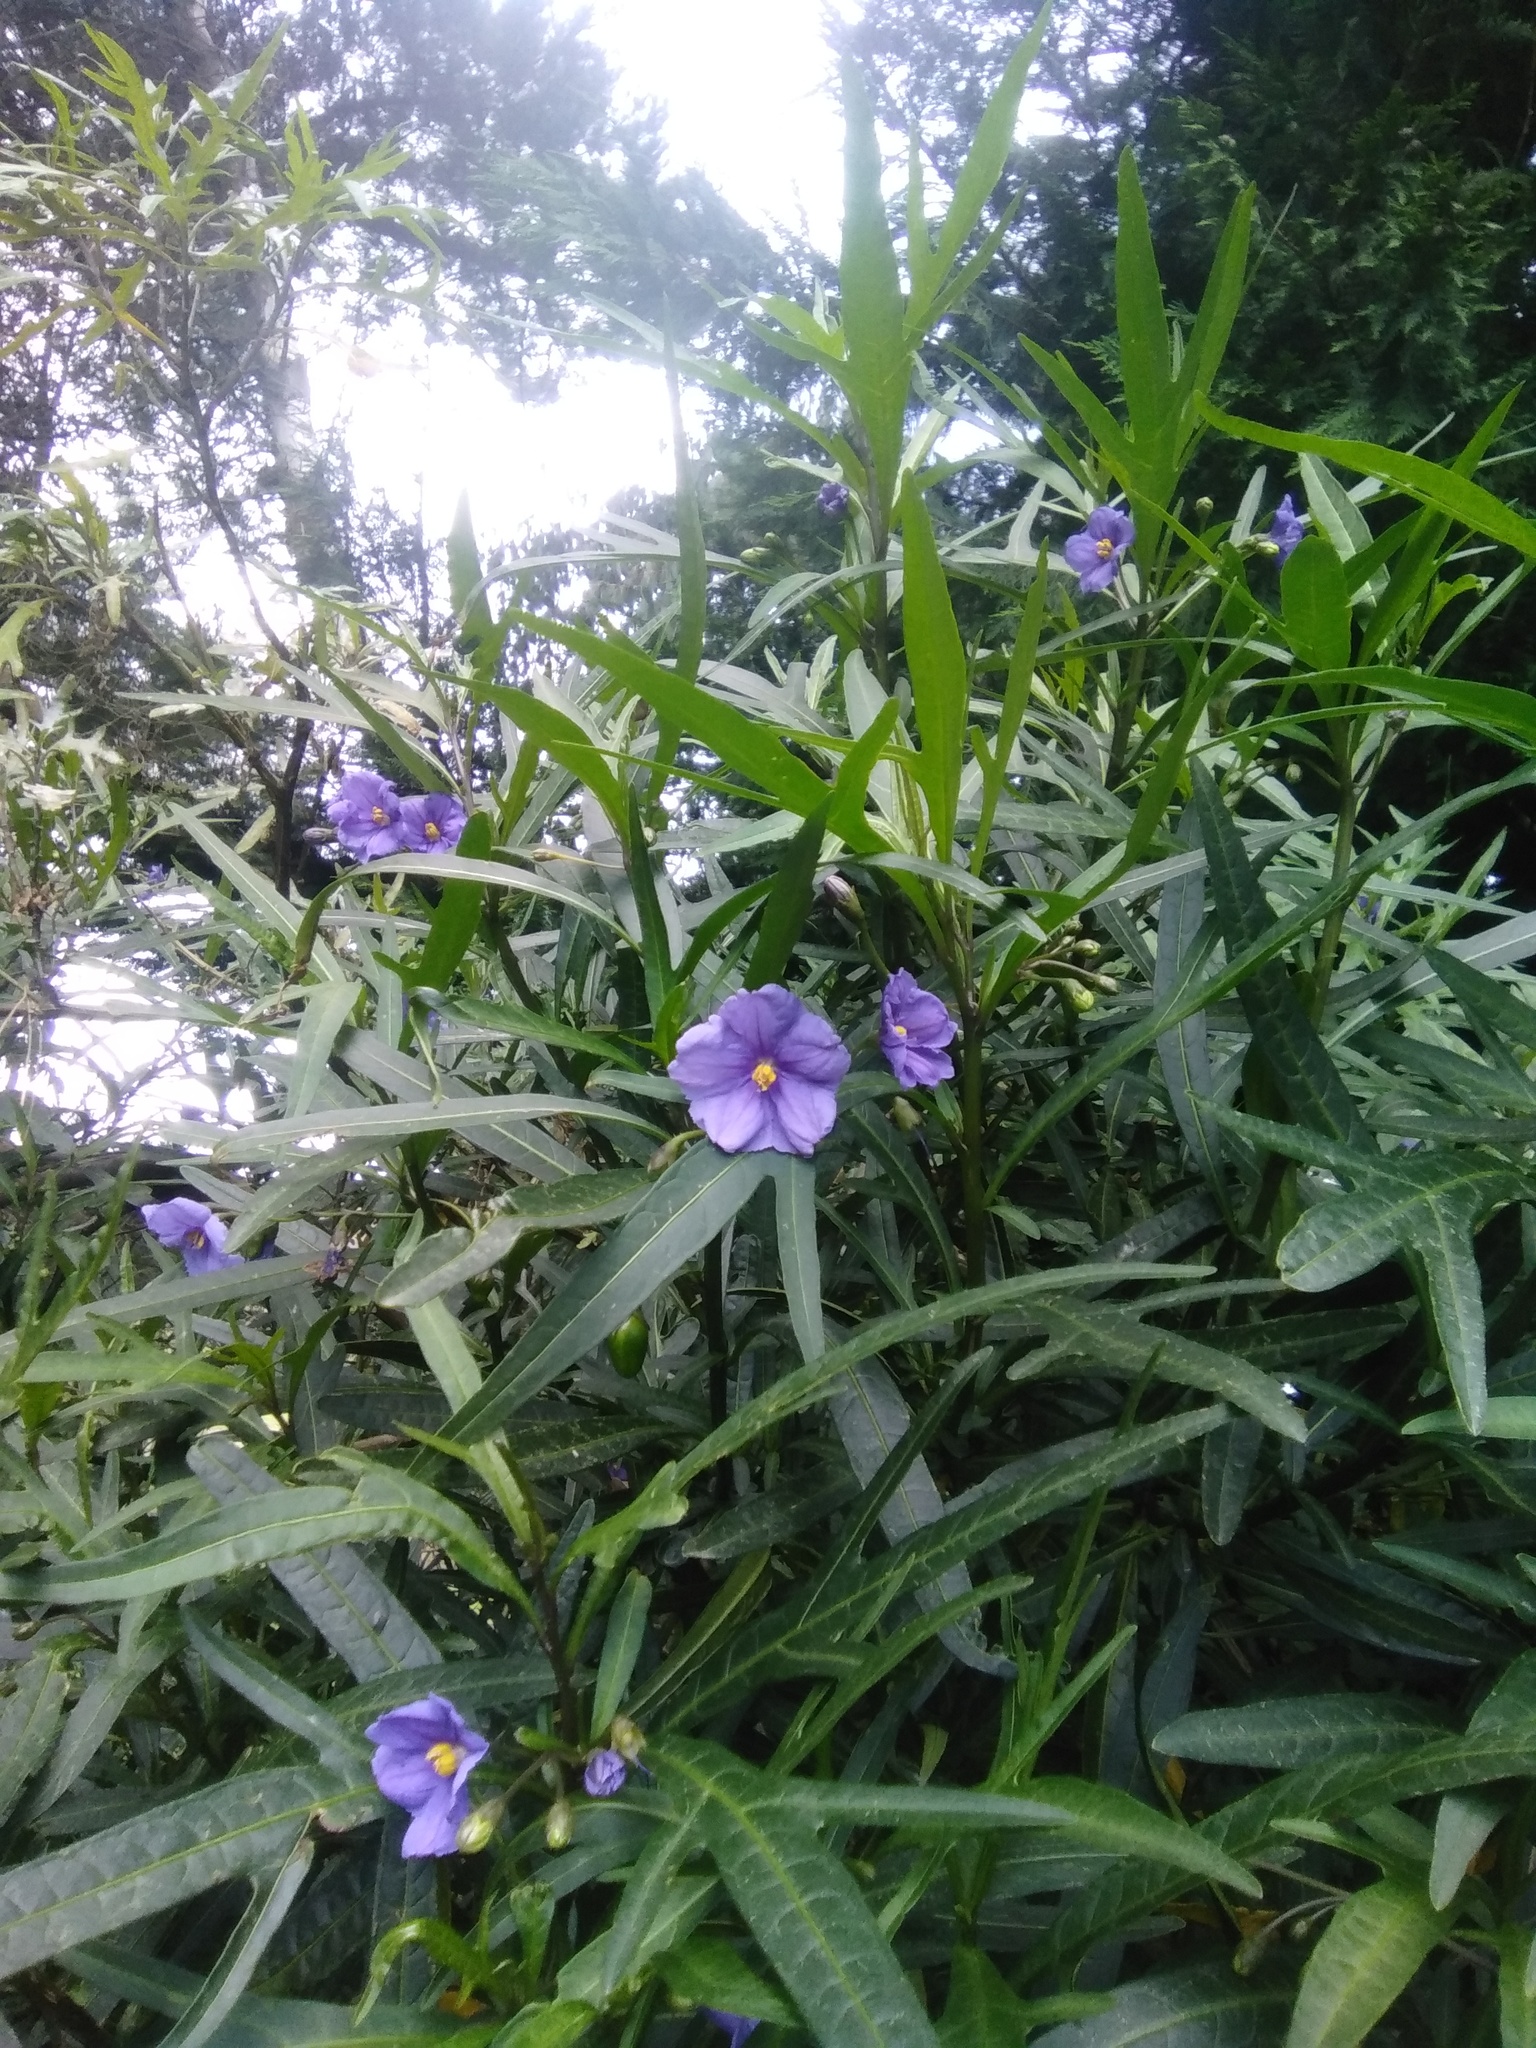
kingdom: Plantae
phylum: Tracheophyta
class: Magnoliopsida
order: Solanales
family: Solanaceae
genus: Solanum
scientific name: Solanum laciniatum
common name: Kangaroo-apple
